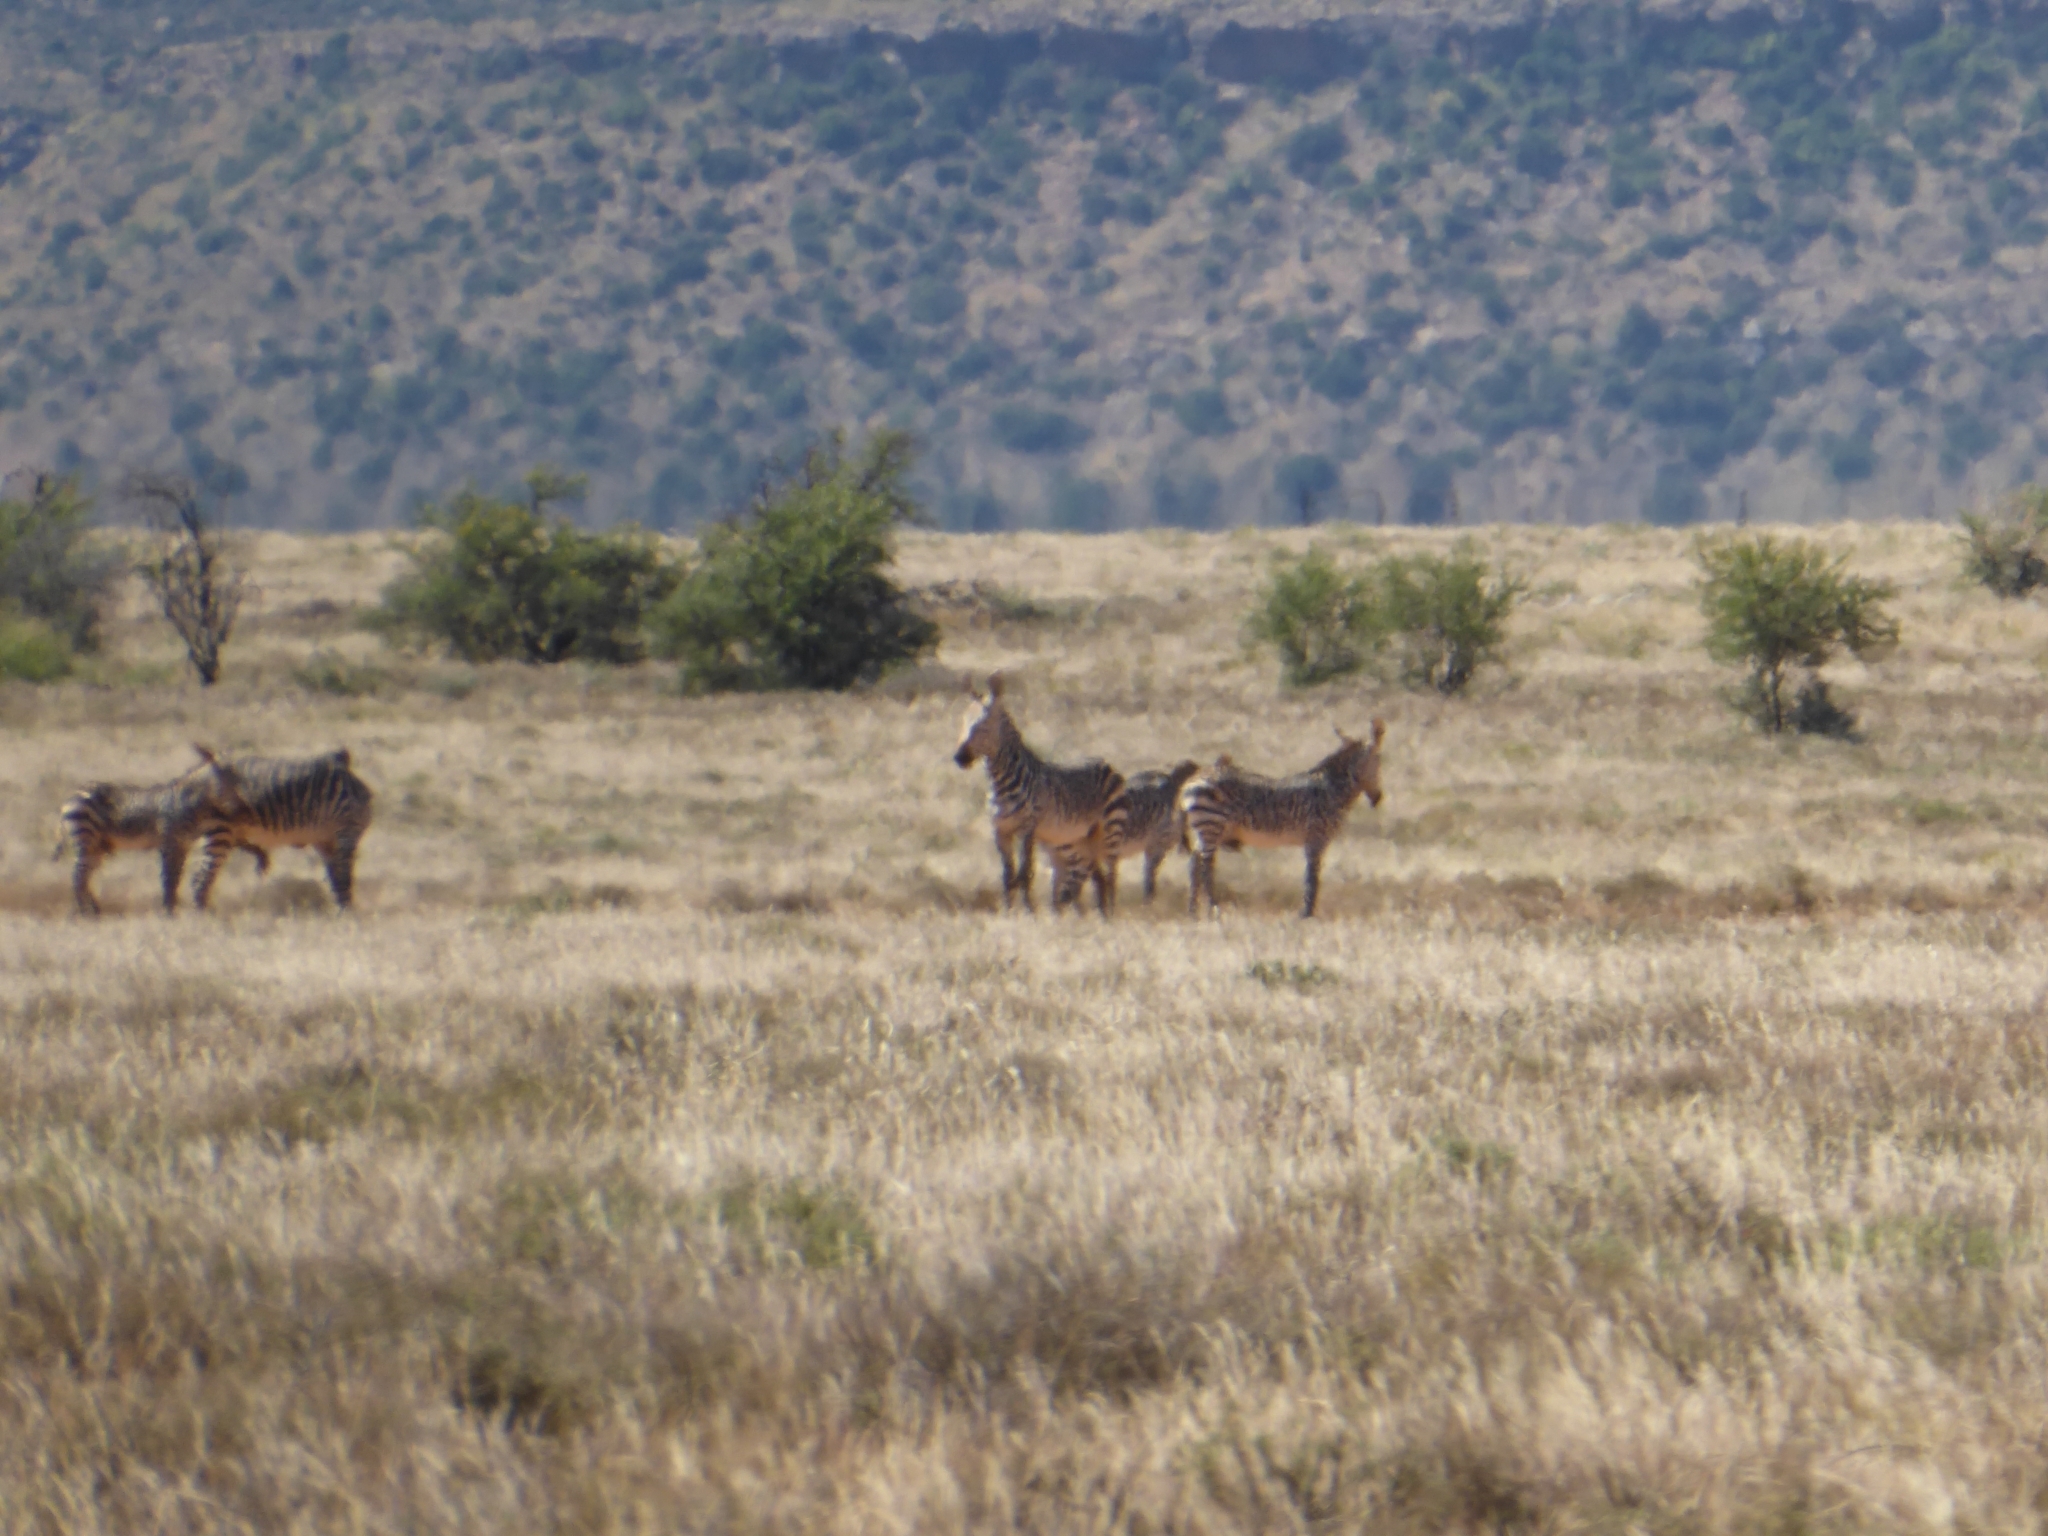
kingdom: Animalia
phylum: Chordata
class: Mammalia
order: Perissodactyla
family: Equidae
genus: Equus
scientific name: Equus zebra
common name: Mountain zebra
